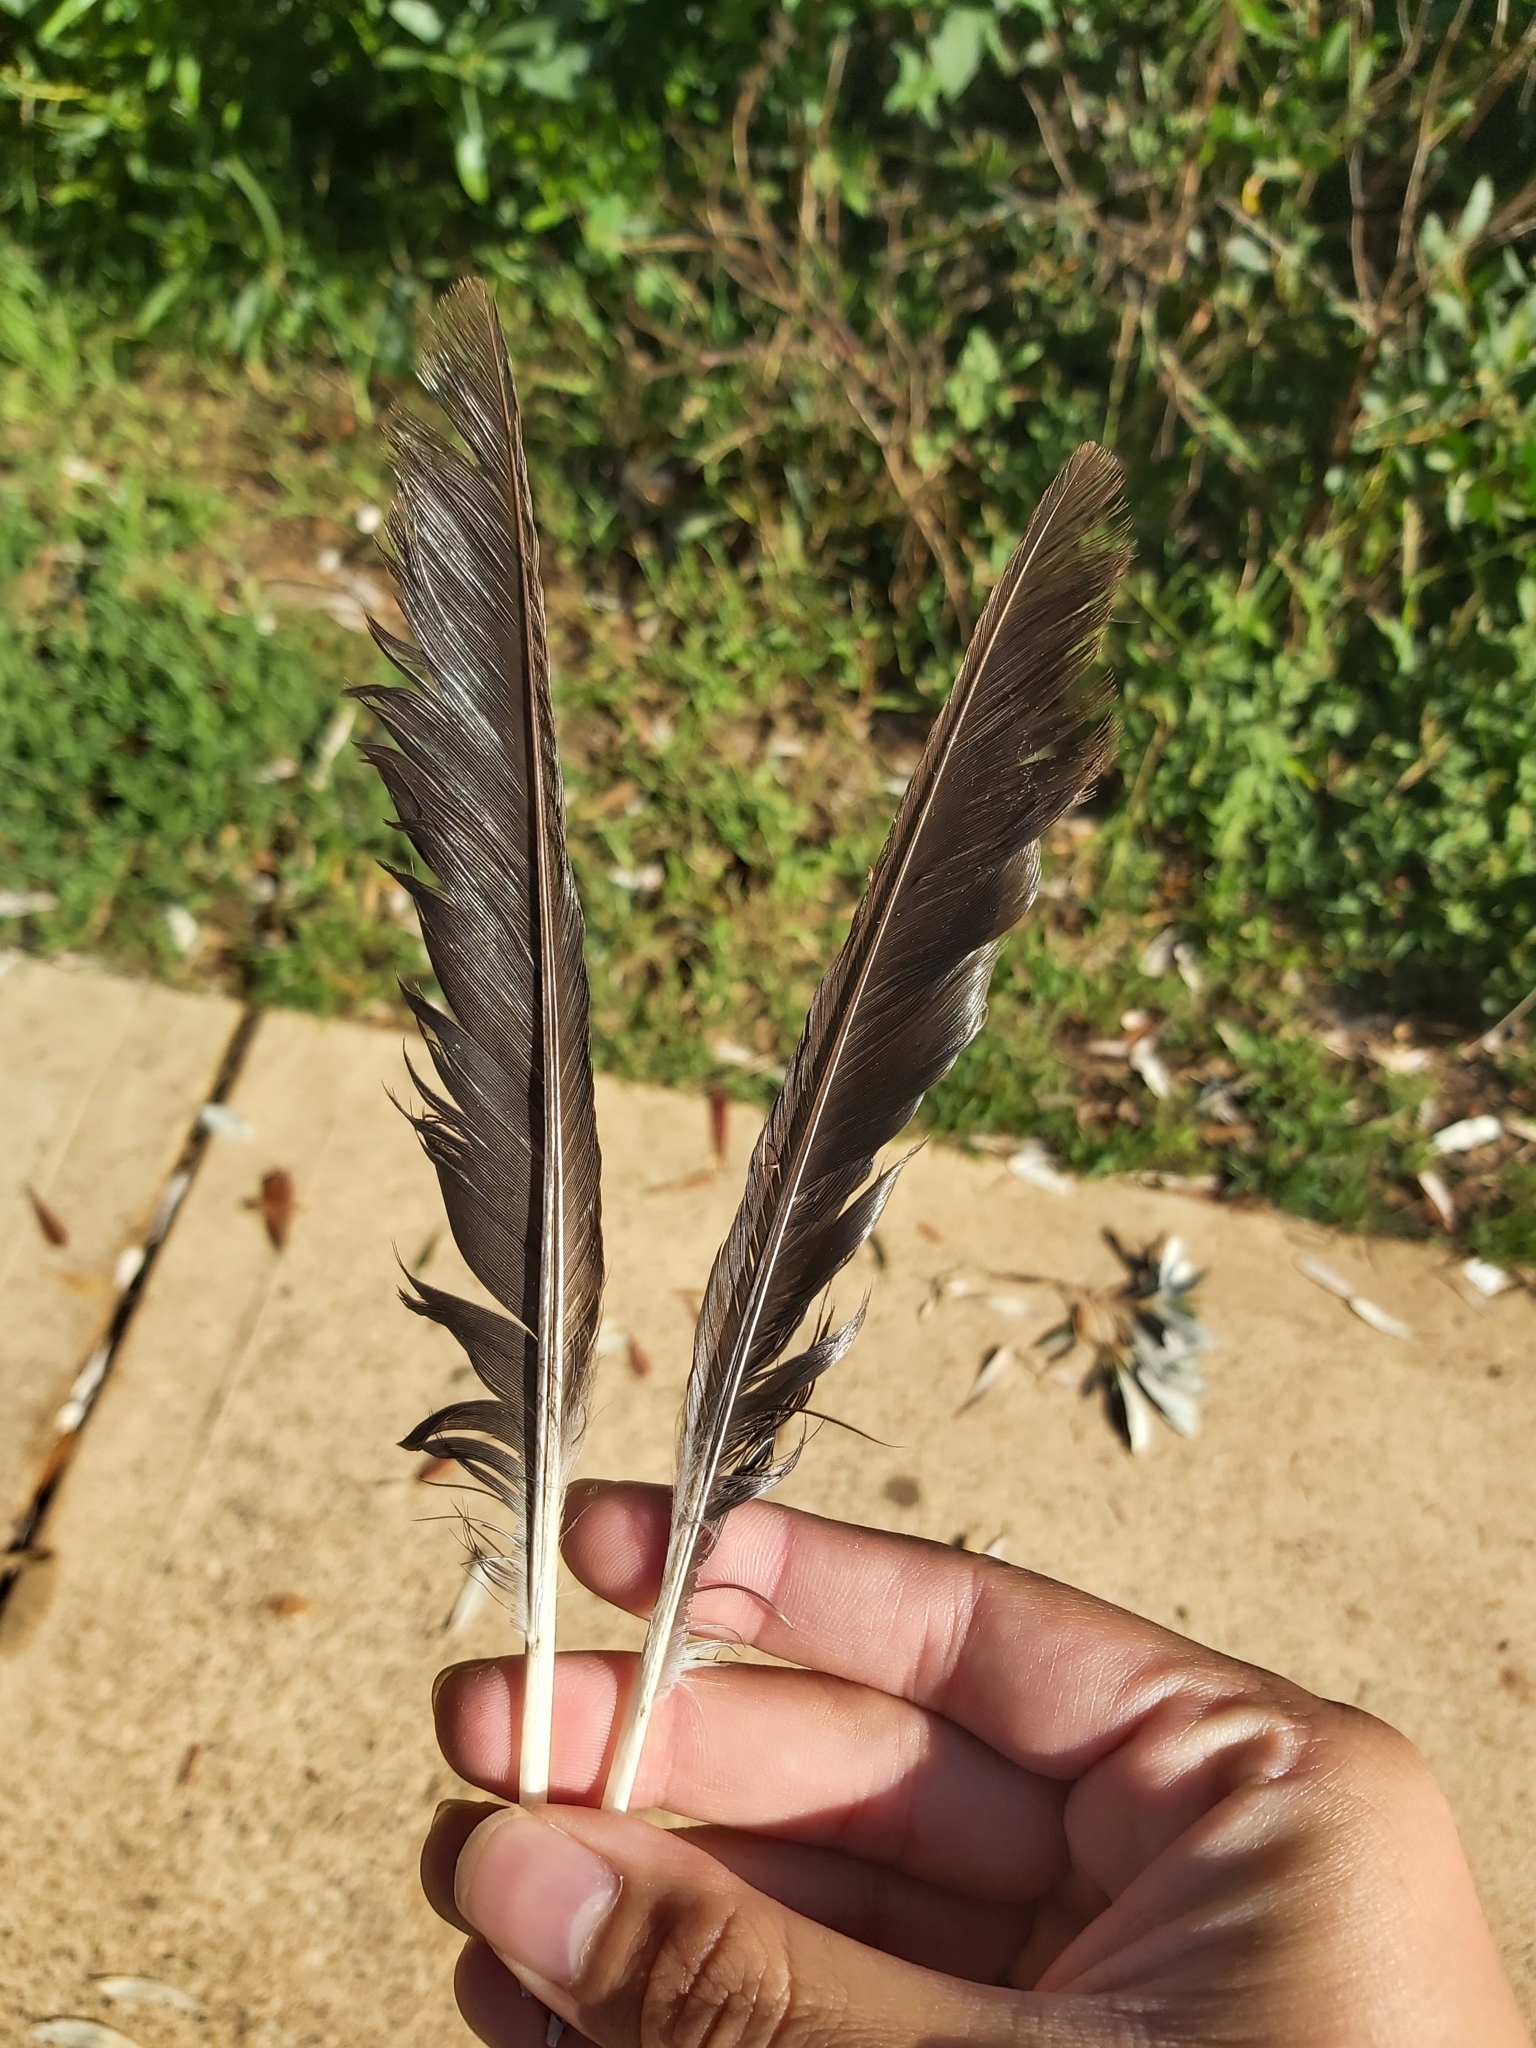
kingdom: Animalia
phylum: Chordata
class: Aves
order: Passeriformes
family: Cracticidae
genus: Gymnorhina
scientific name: Gymnorhina tibicen
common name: Australian magpie
